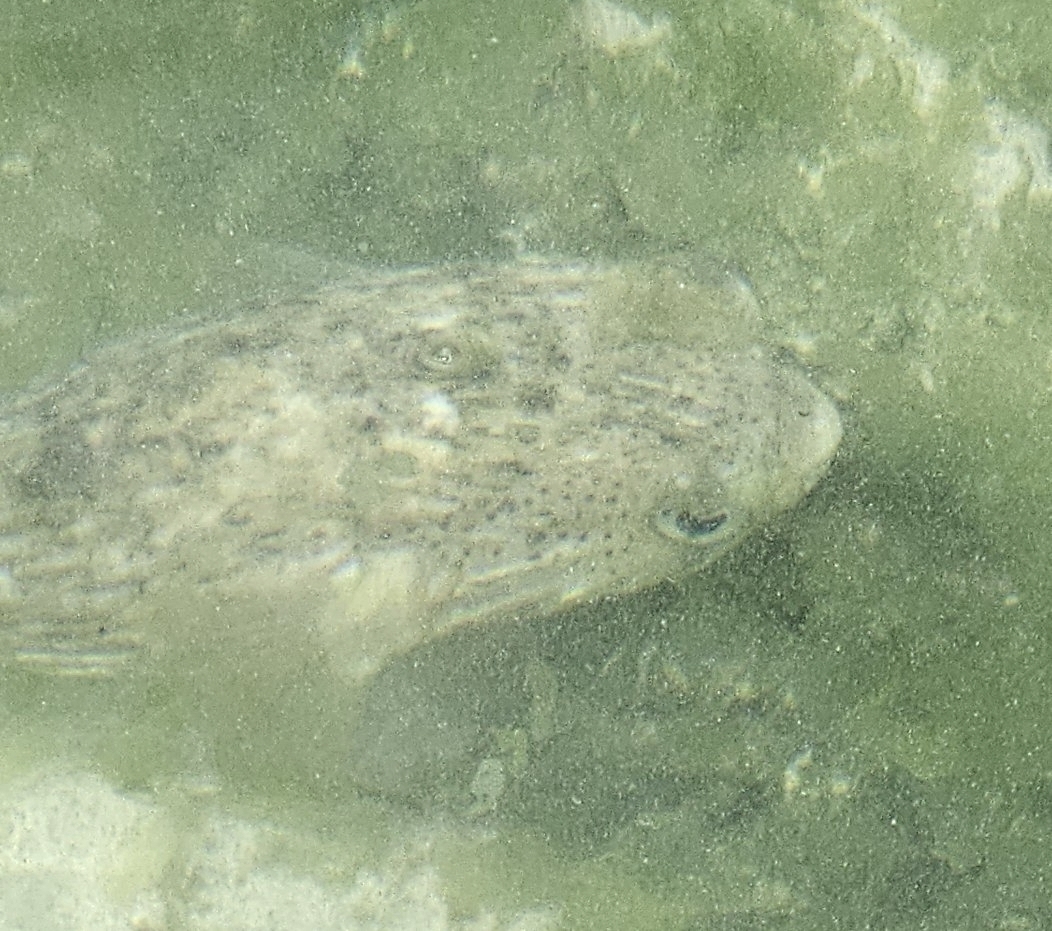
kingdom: Animalia
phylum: Chordata
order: Tetraodontiformes
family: Diodontidae
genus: Diodon
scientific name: Diodon holocanthus
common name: Balloonfish
